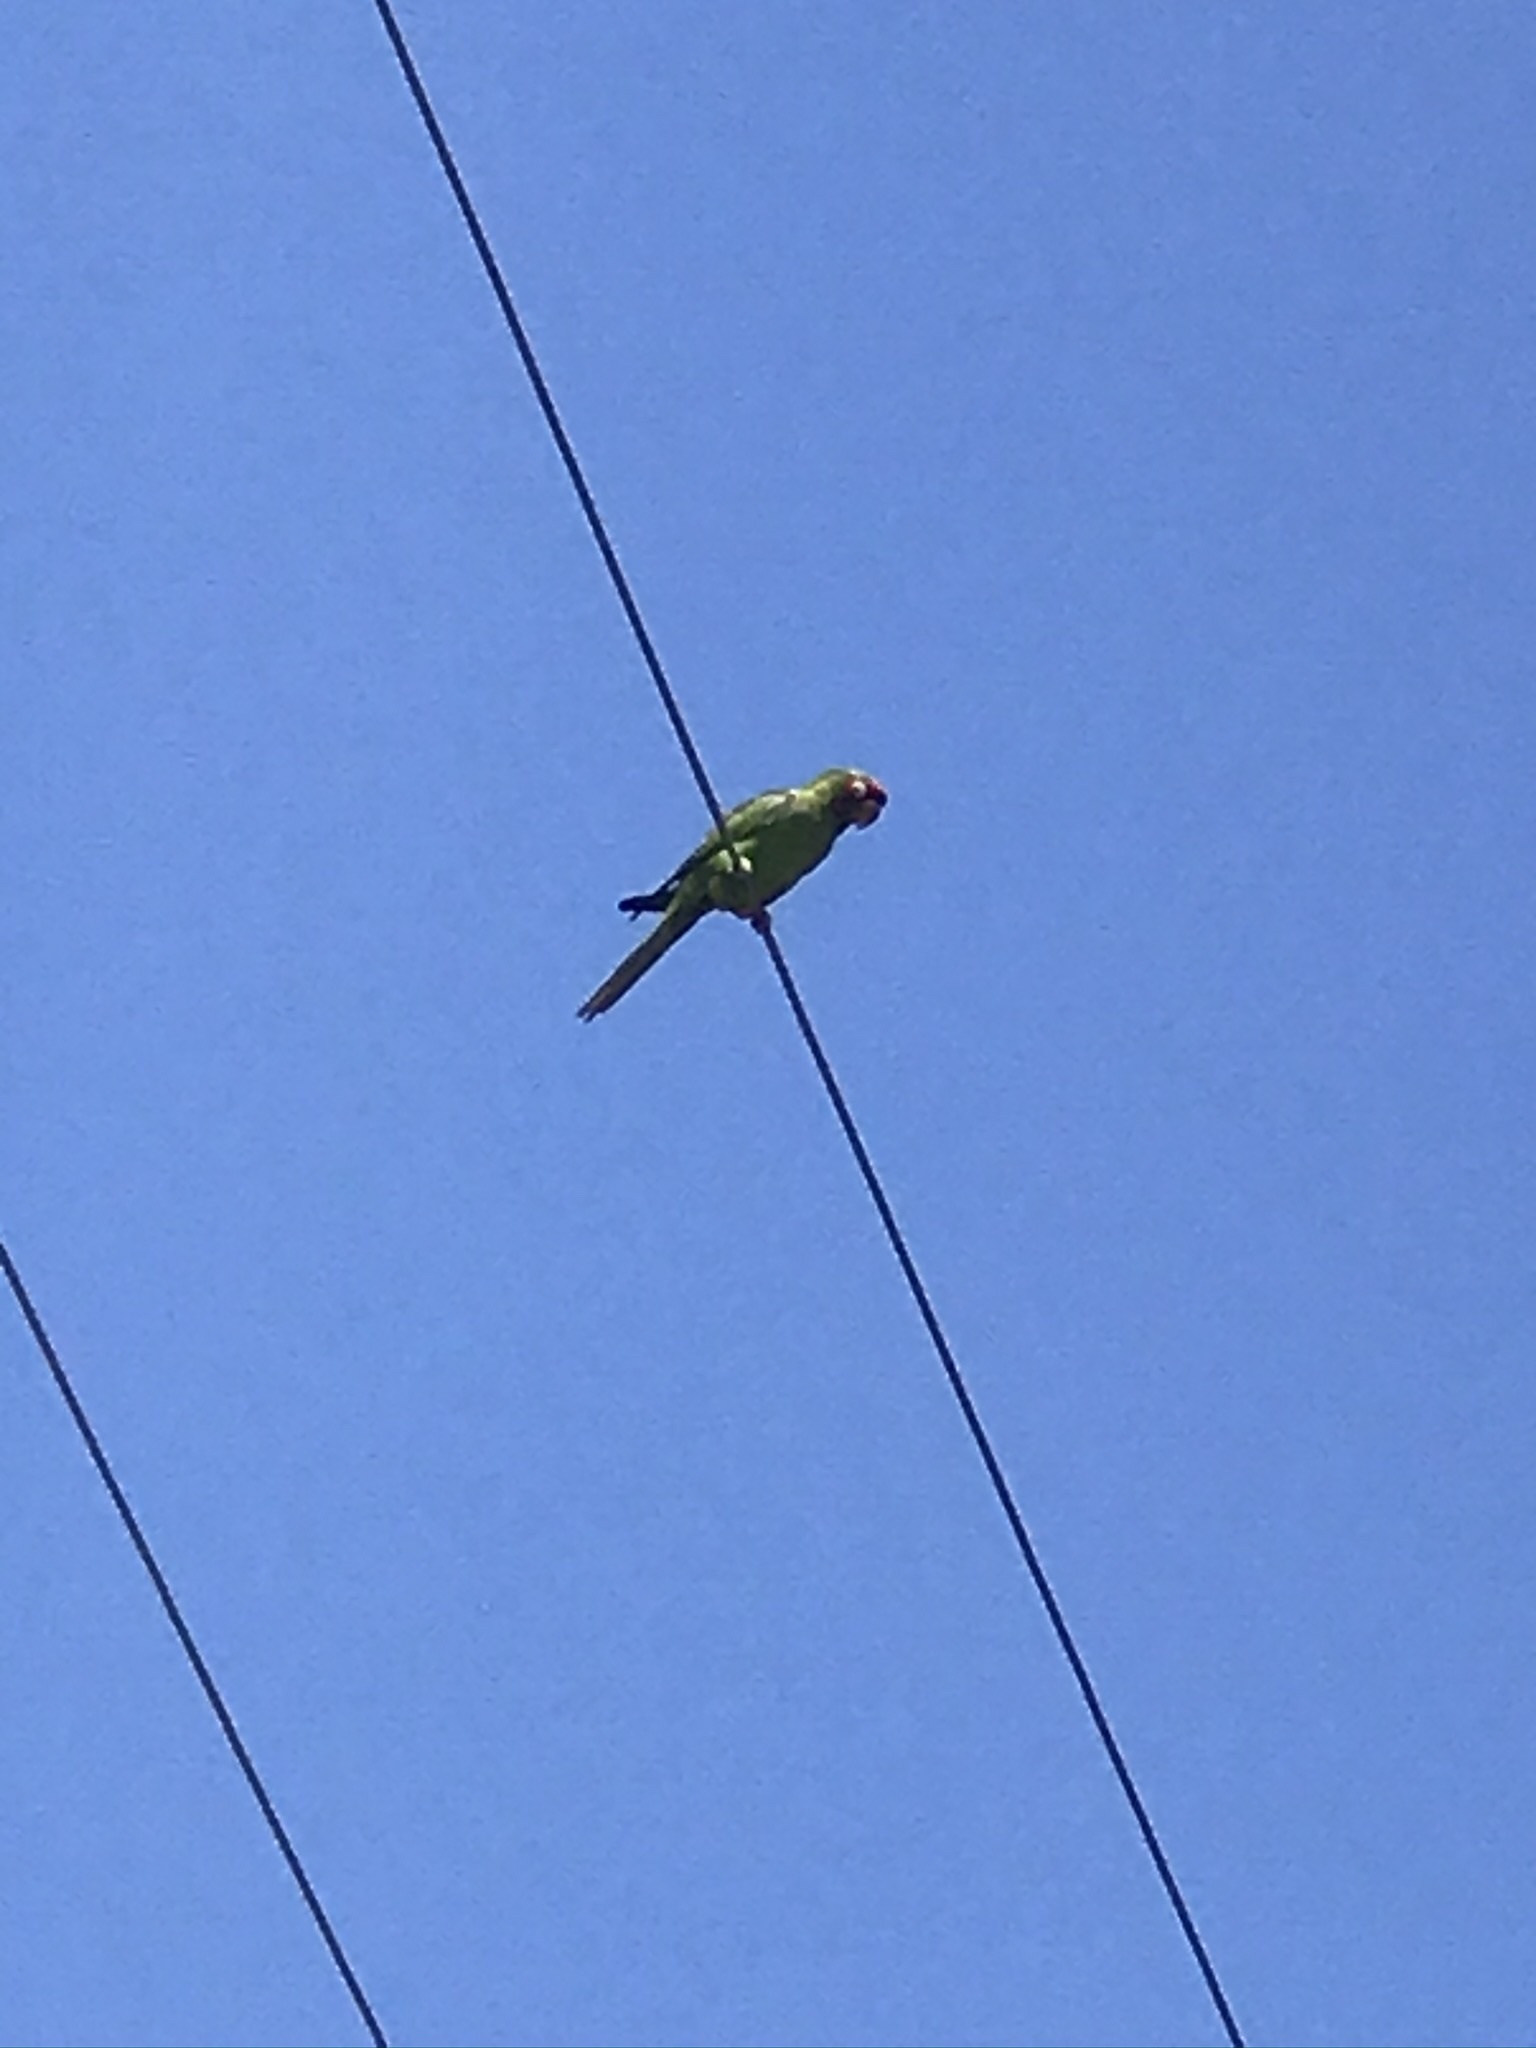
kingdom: Animalia
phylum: Chordata
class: Aves
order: Psittaciformes
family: Psittacidae
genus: Aratinga
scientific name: Aratinga mitrata
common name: Mitred parakeet
